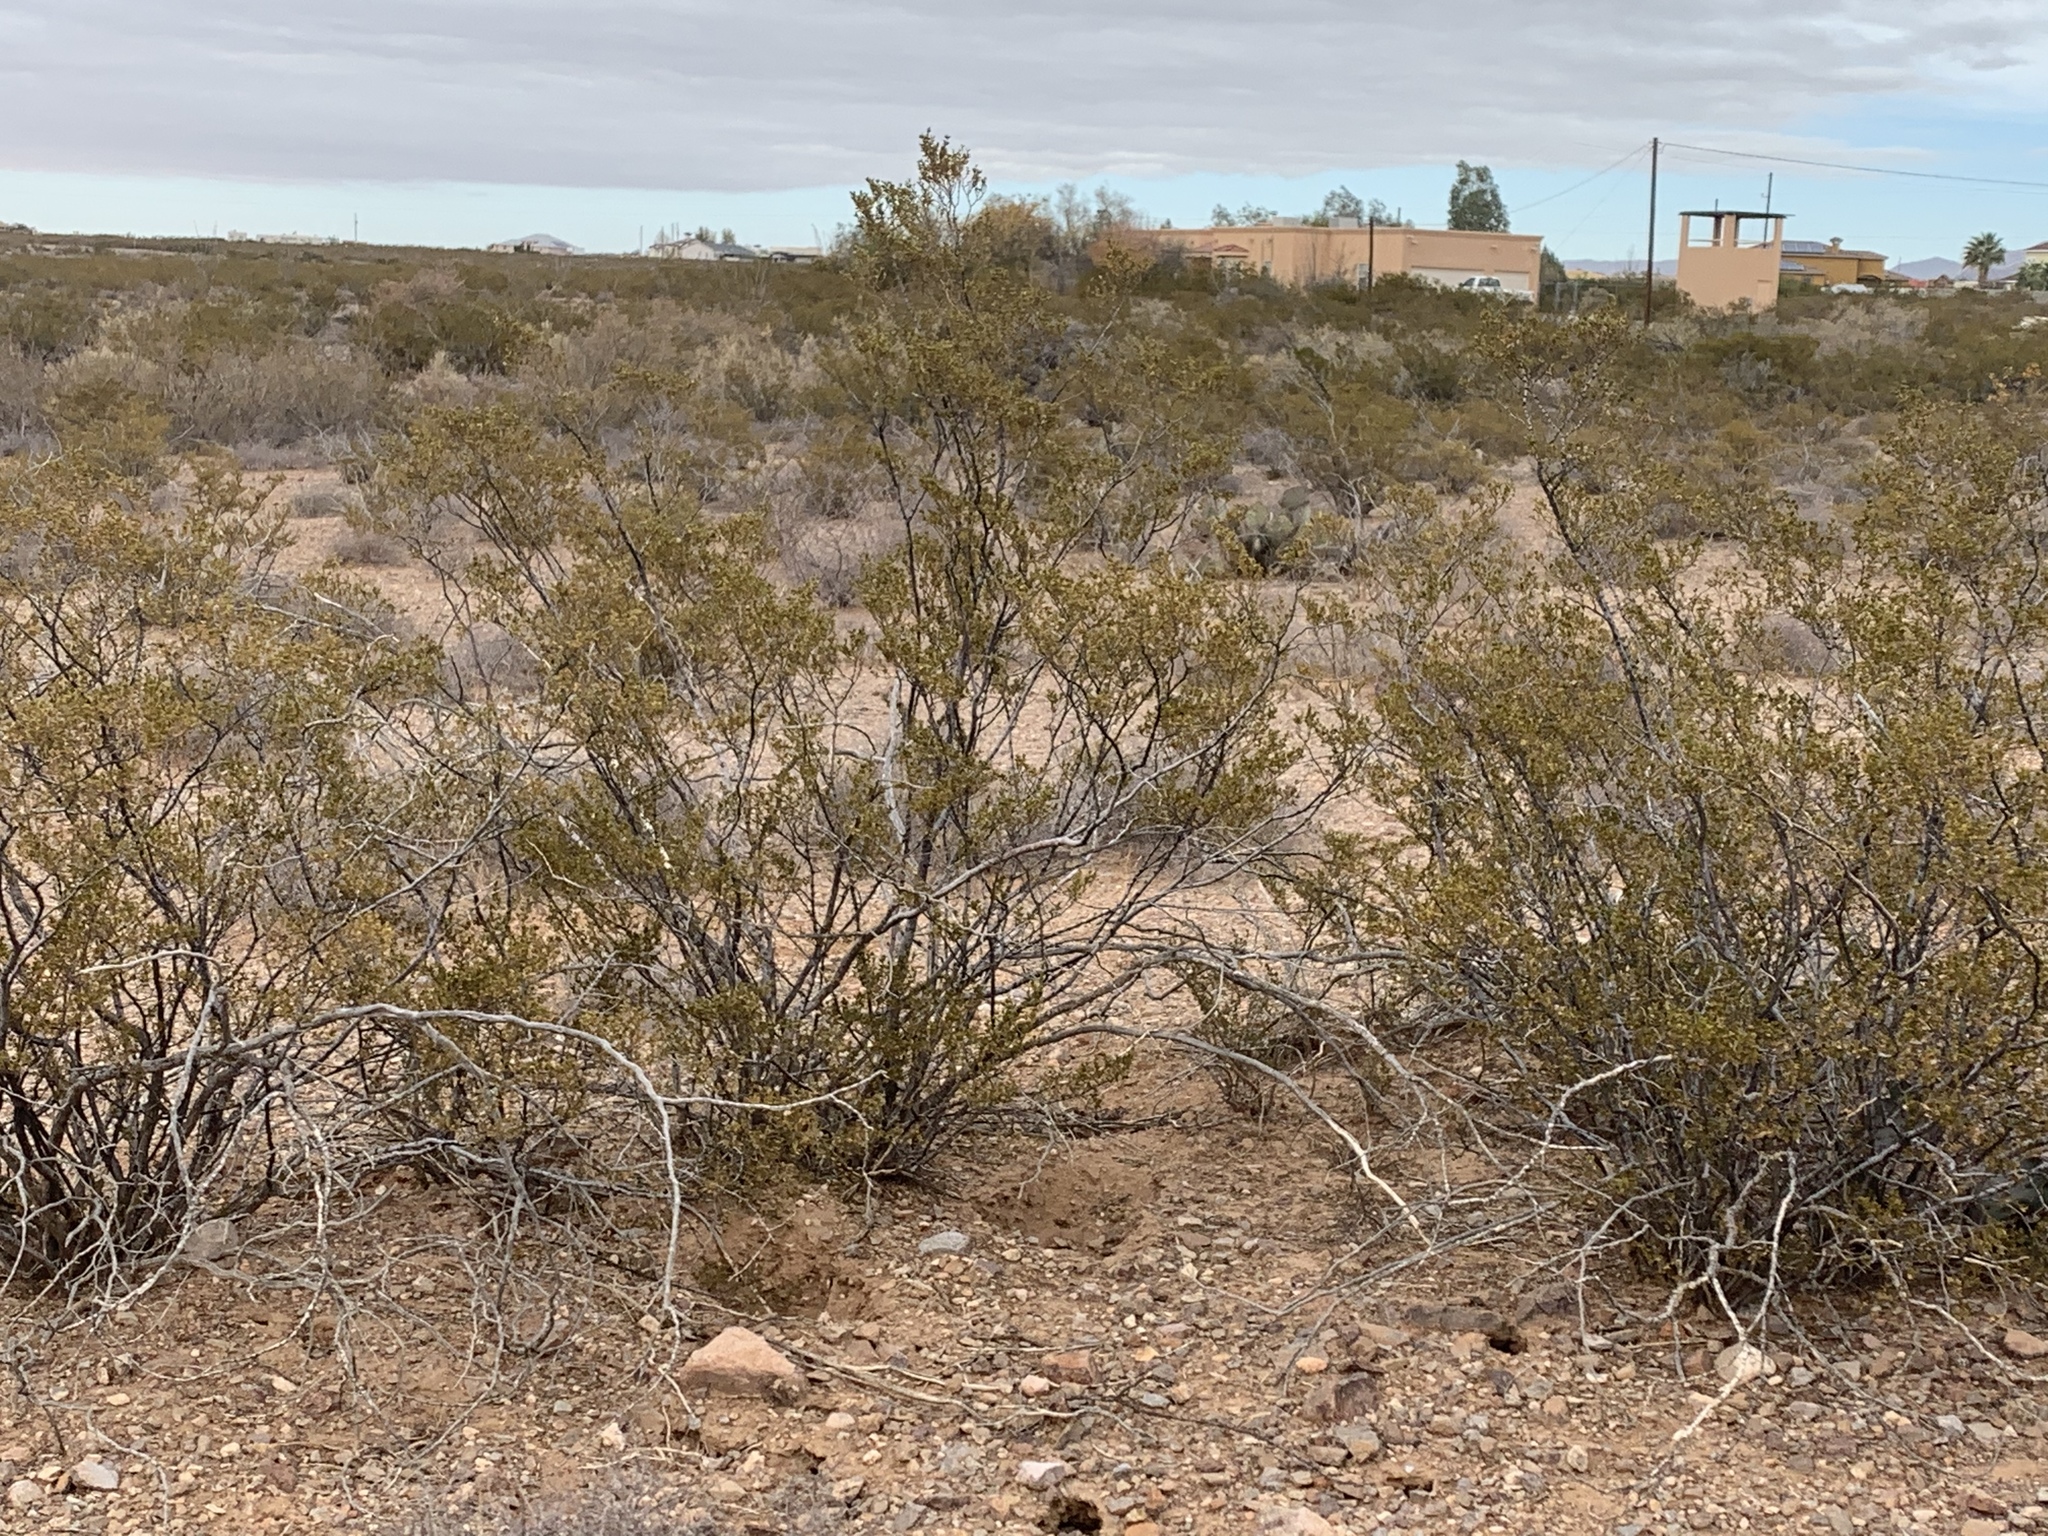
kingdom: Plantae
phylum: Tracheophyta
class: Magnoliopsida
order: Zygophyllales
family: Zygophyllaceae
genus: Larrea
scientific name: Larrea tridentata
